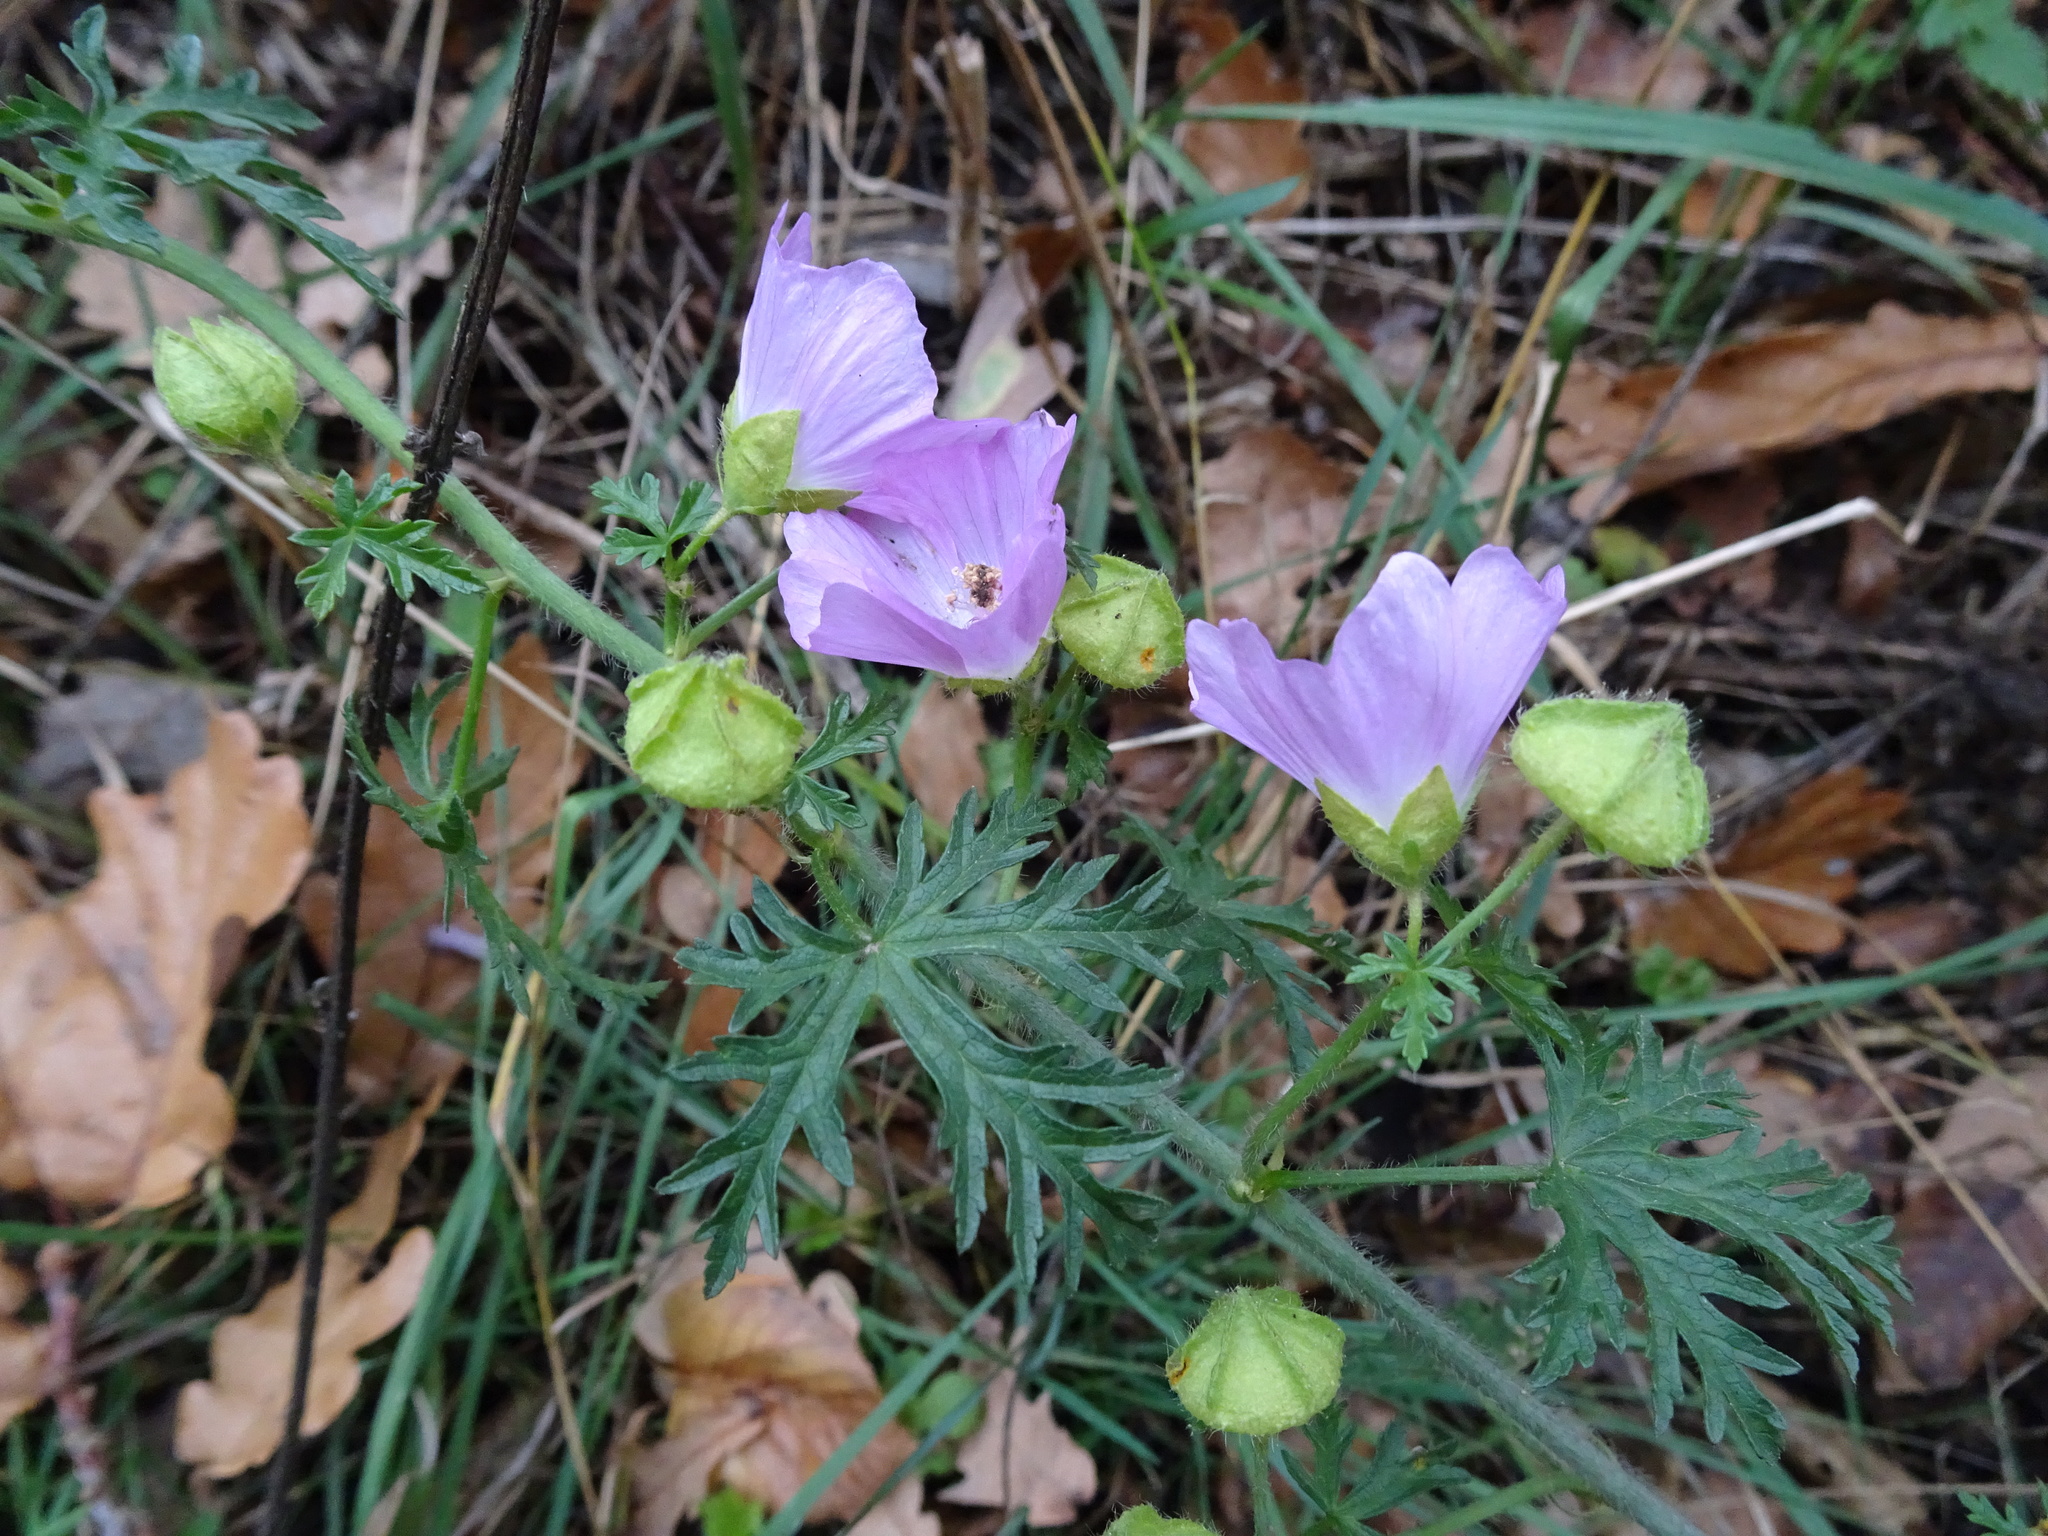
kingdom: Plantae
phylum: Tracheophyta
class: Magnoliopsida
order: Malvales
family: Malvaceae
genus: Malva
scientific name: Malva moschata
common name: Musk mallow
